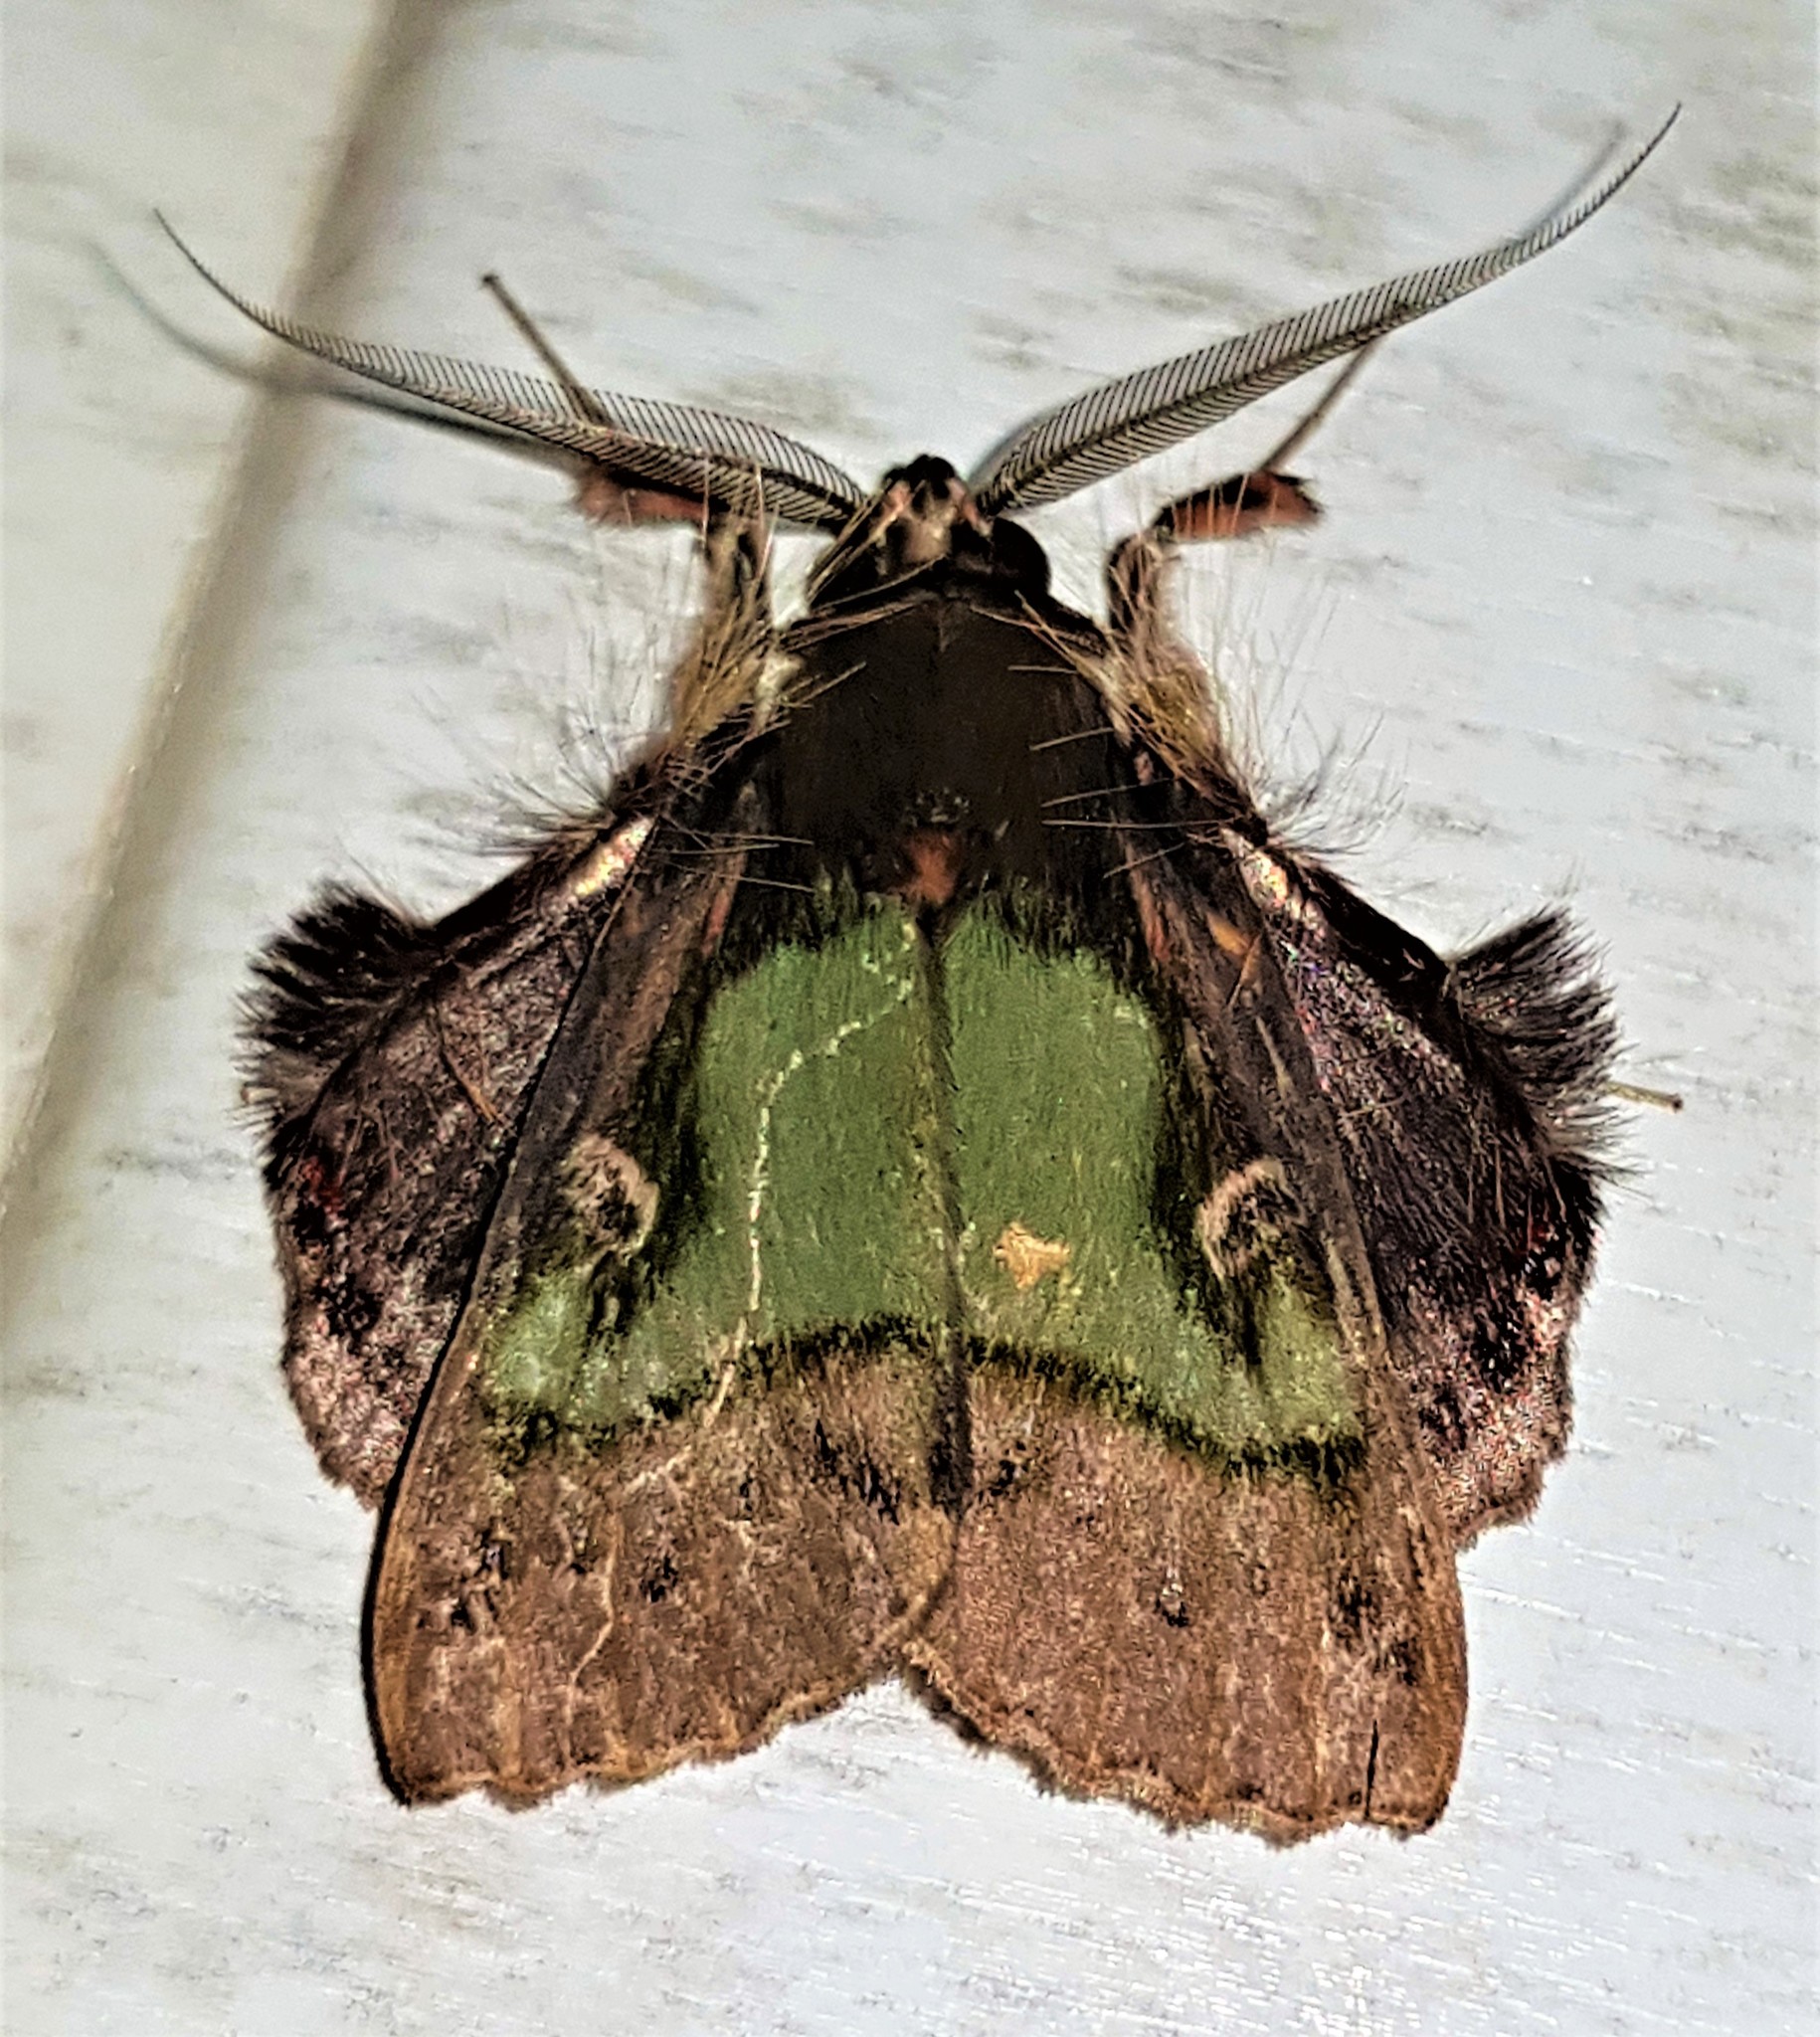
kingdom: Animalia
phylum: Arthropoda
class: Insecta
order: Lepidoptera
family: Erebidae
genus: Ceroctena
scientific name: Ceroctena amynta
